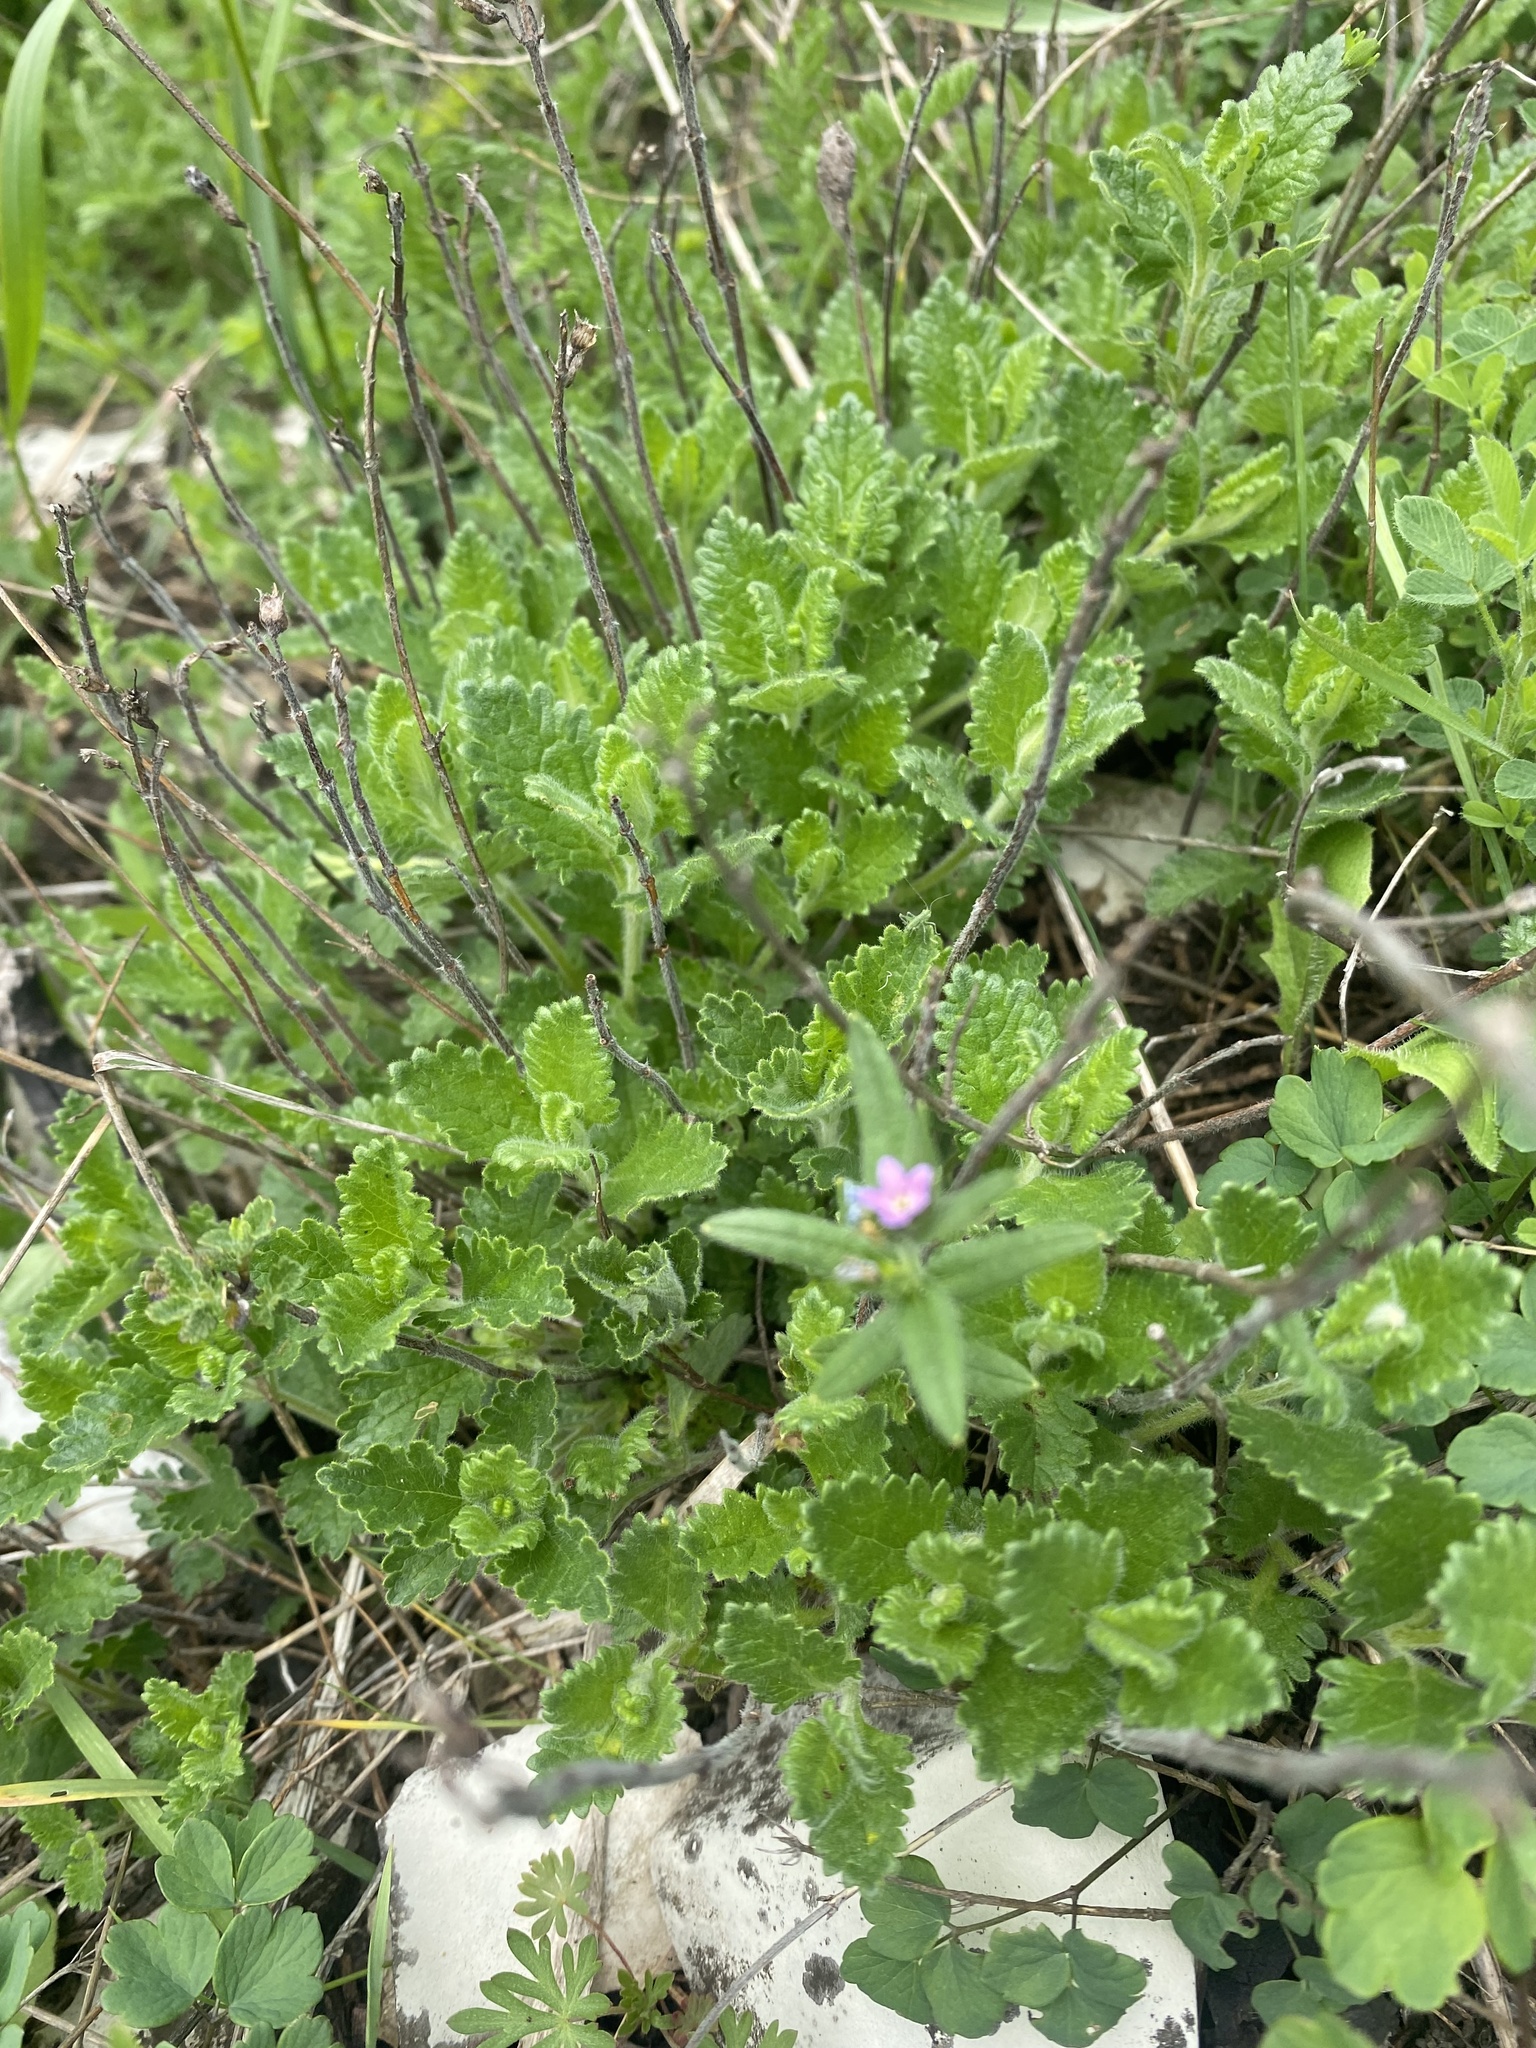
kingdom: Plantae
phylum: Tracheophyta
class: Magnoliopsida
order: Lamiales
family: Lamiaceae
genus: Teucrium
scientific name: Teucrium chamaedrys
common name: Wall germander
